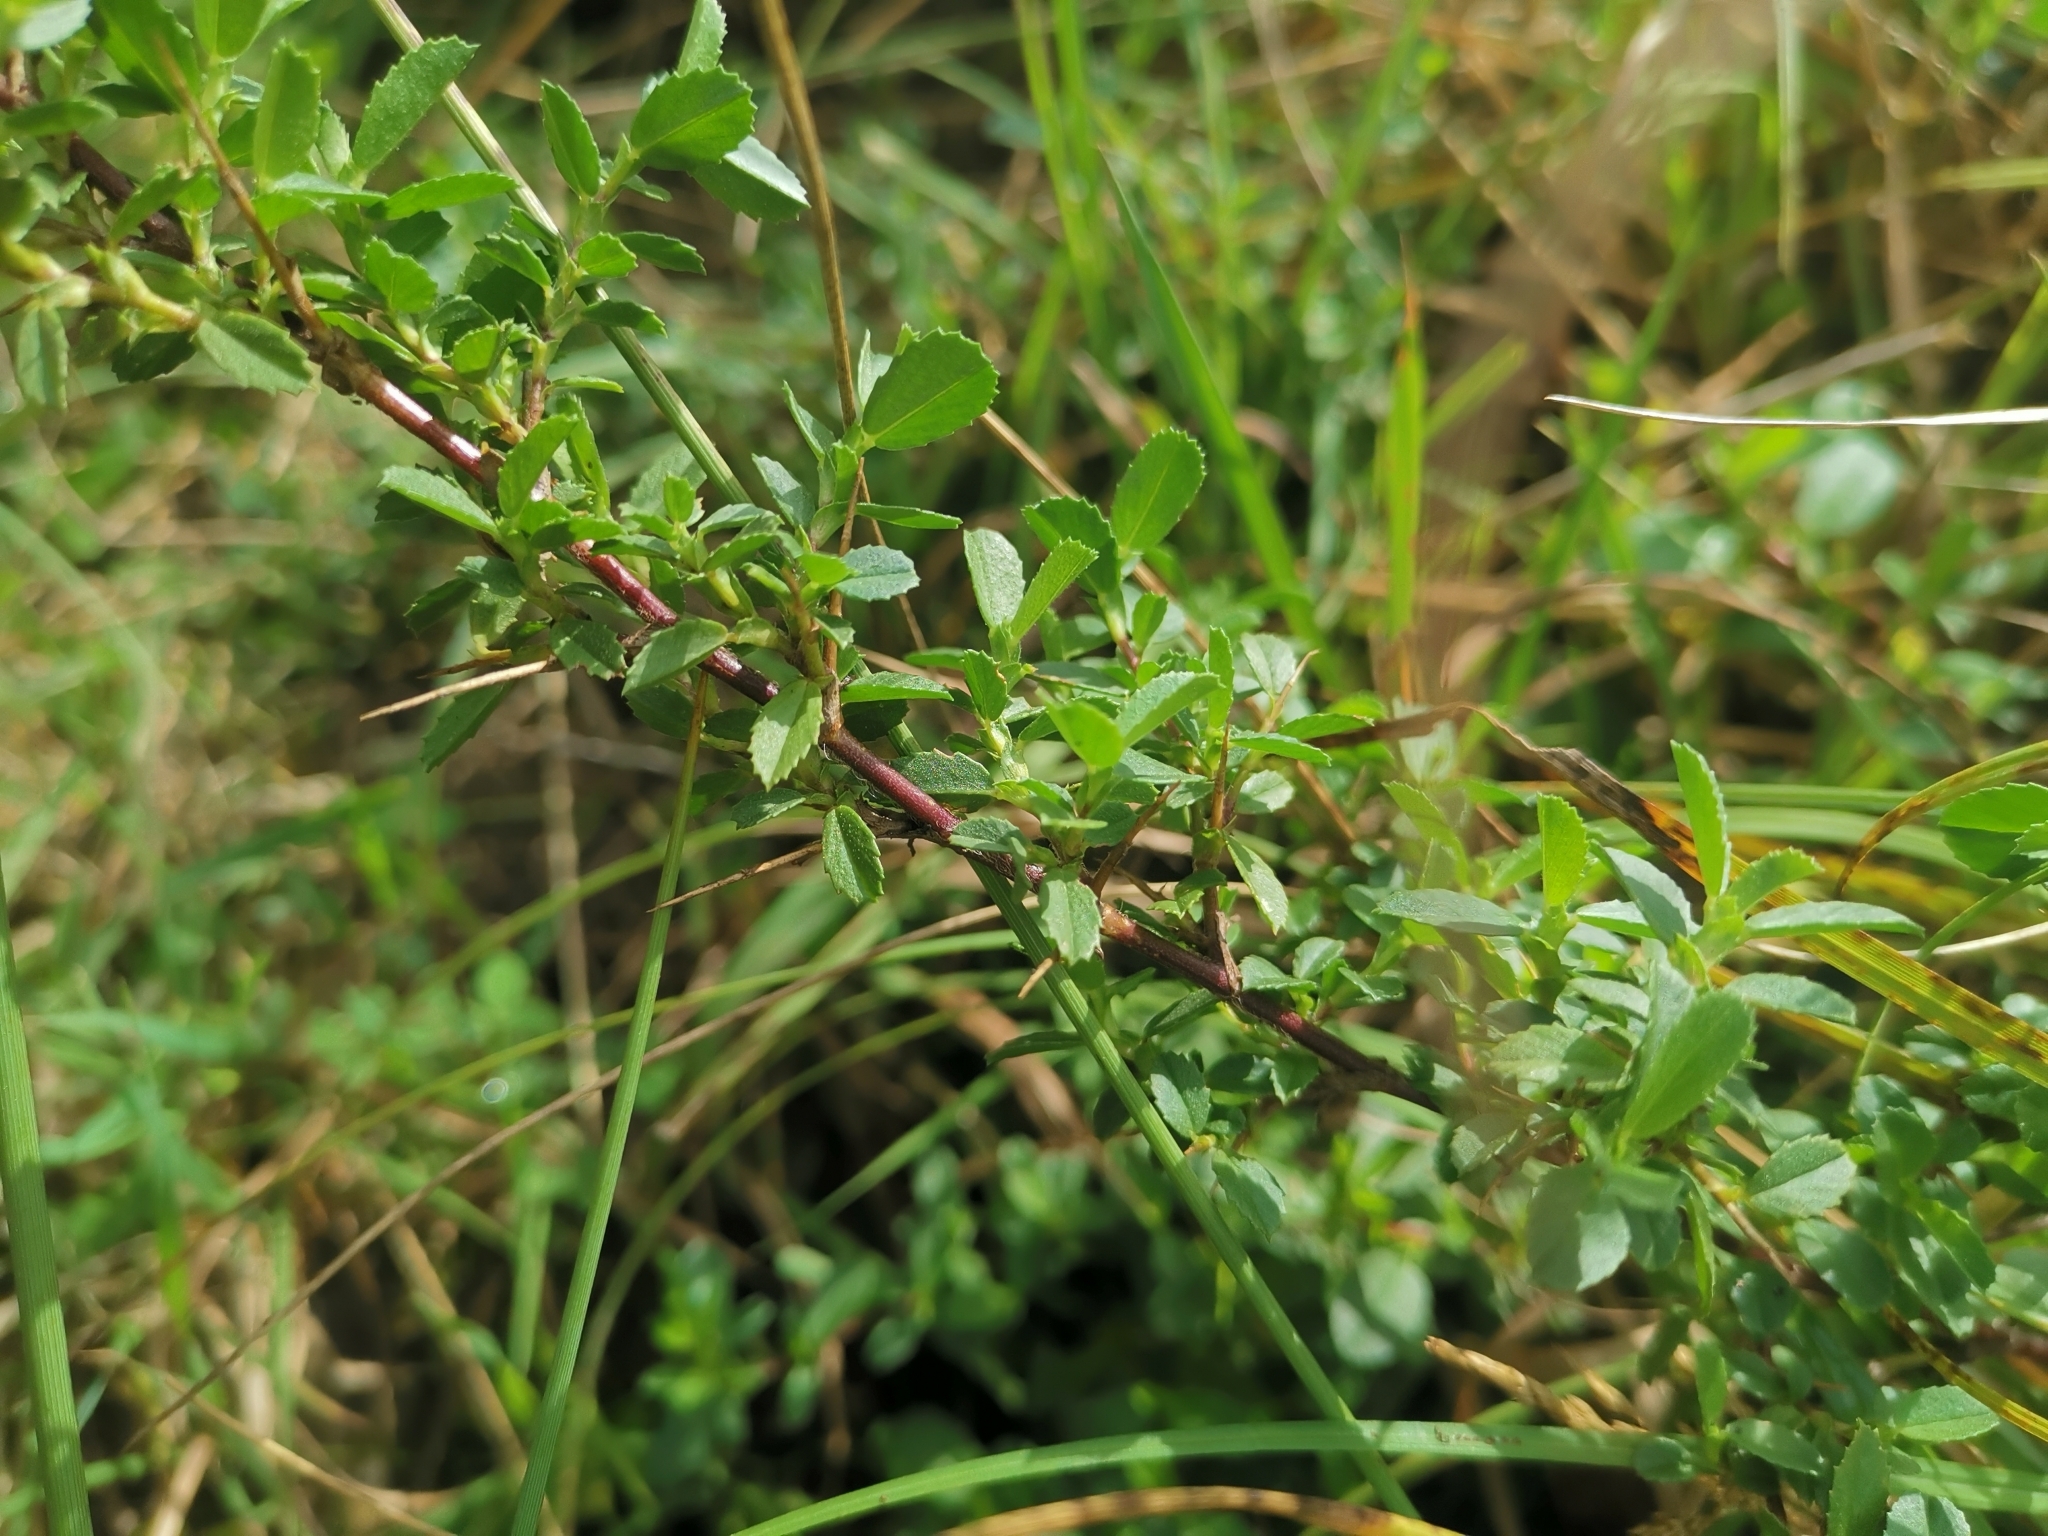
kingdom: Plantae
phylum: Tracheophyta
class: Magnoliopsida
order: Fabales
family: Fabaceae
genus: Ononis
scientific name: Ononis spinosa
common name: Spiny restharrow
